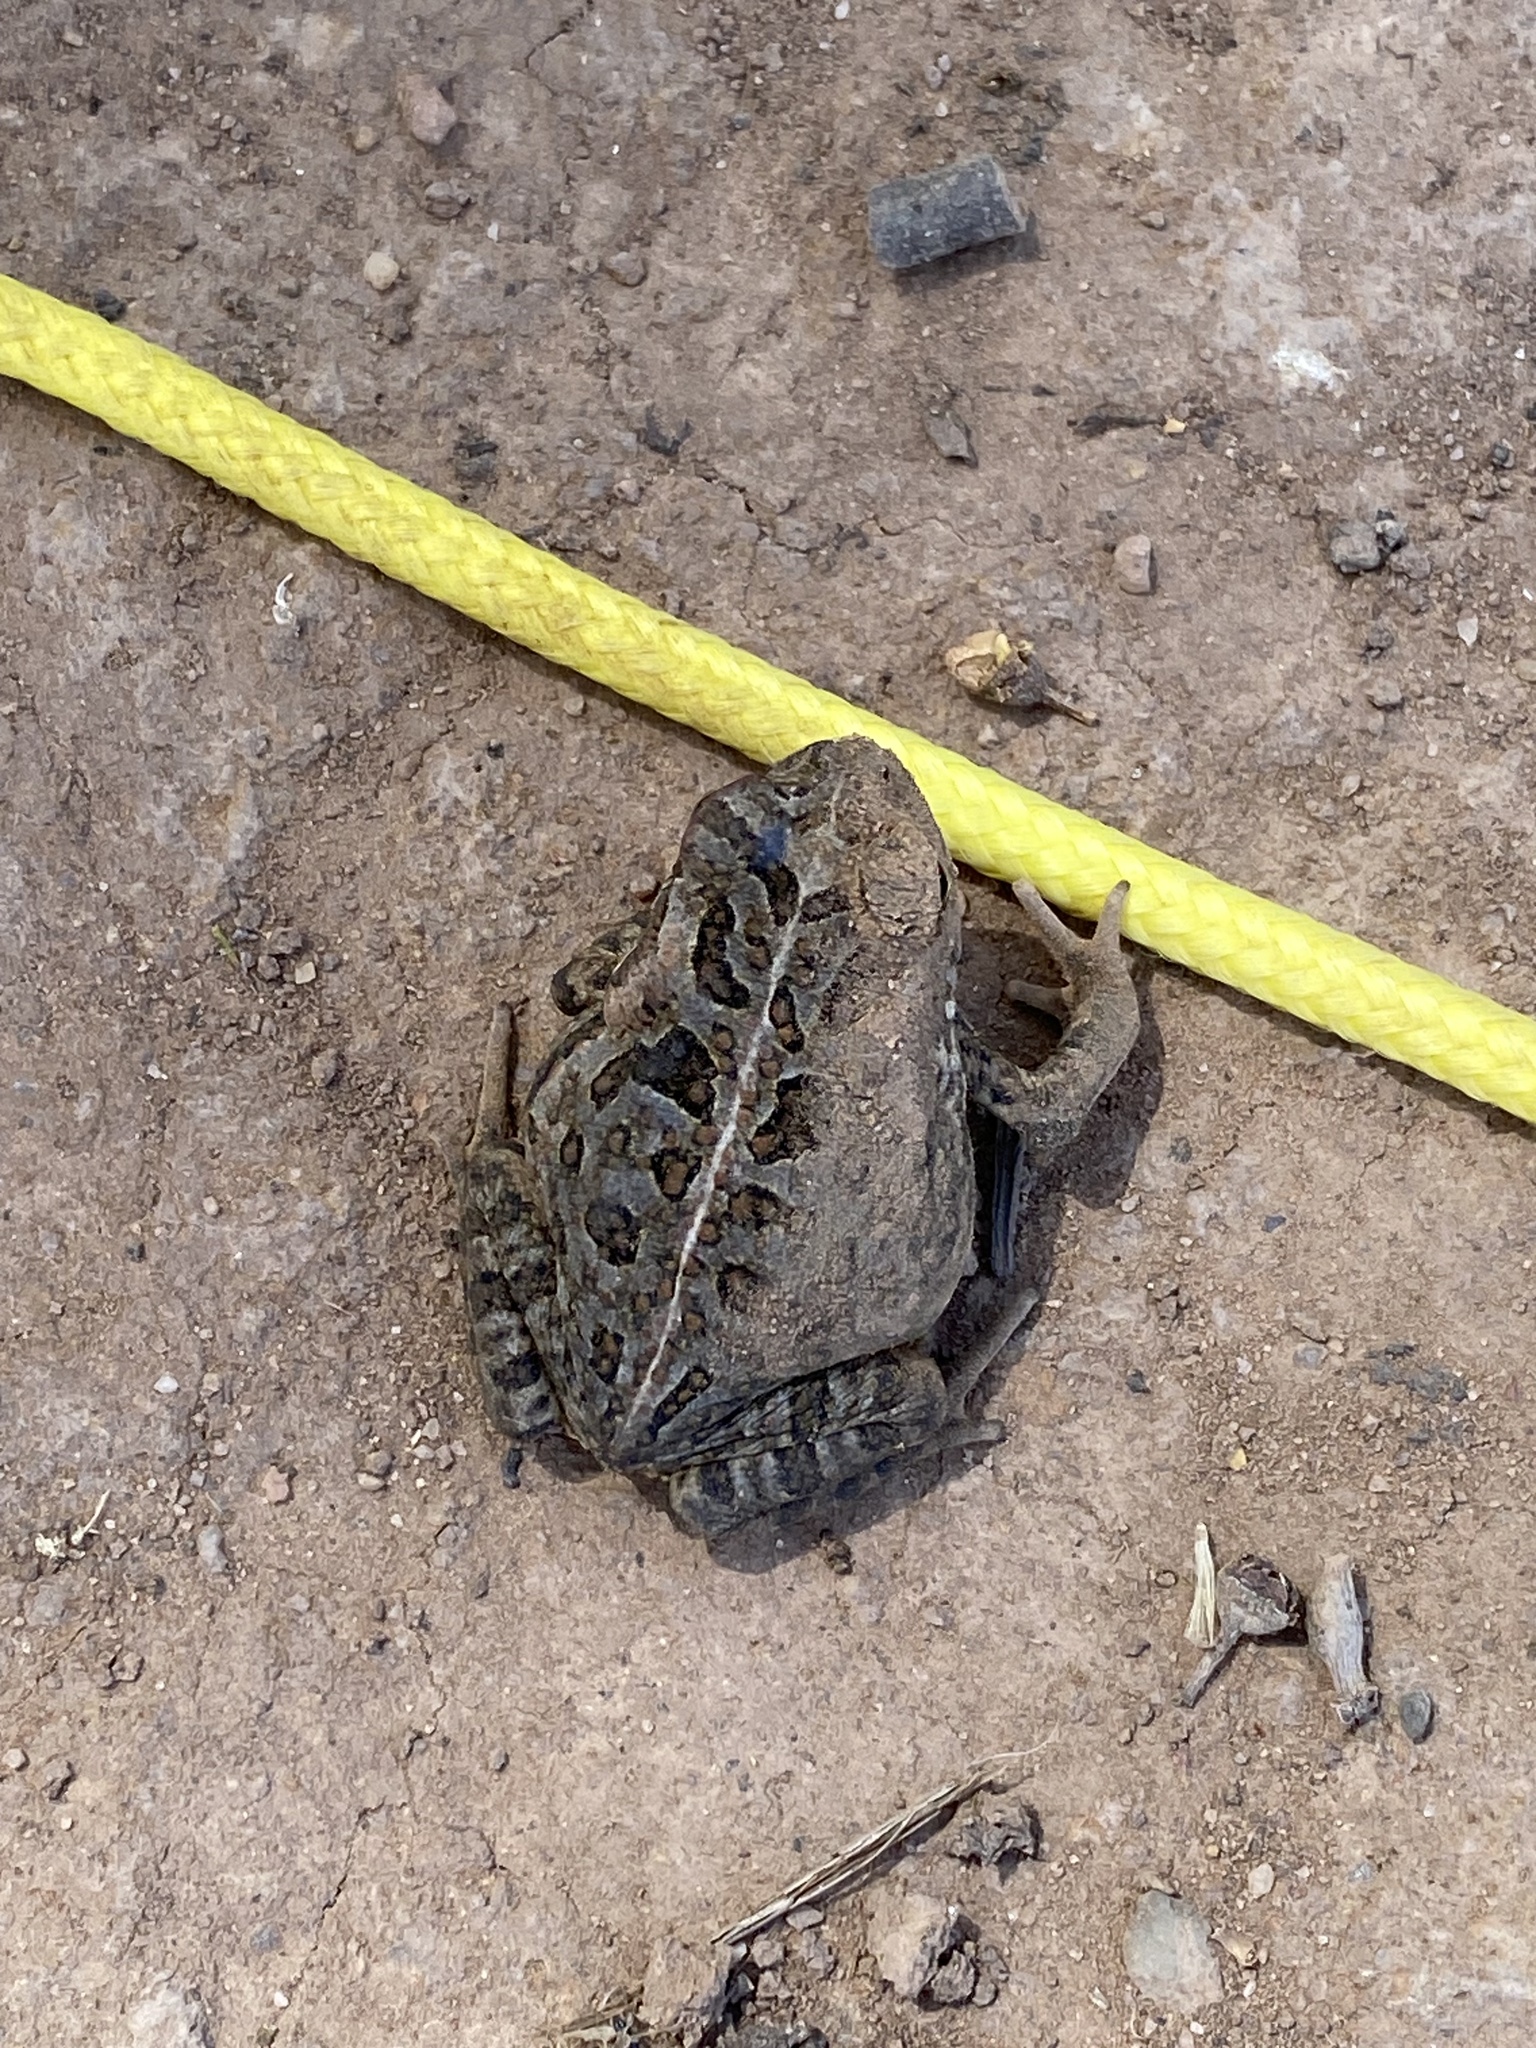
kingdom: Animalia
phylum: Chordata
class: Amphibia
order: Anura
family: Bufonidae
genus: Rhinella
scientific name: Rhinella marina
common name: Cane toad
